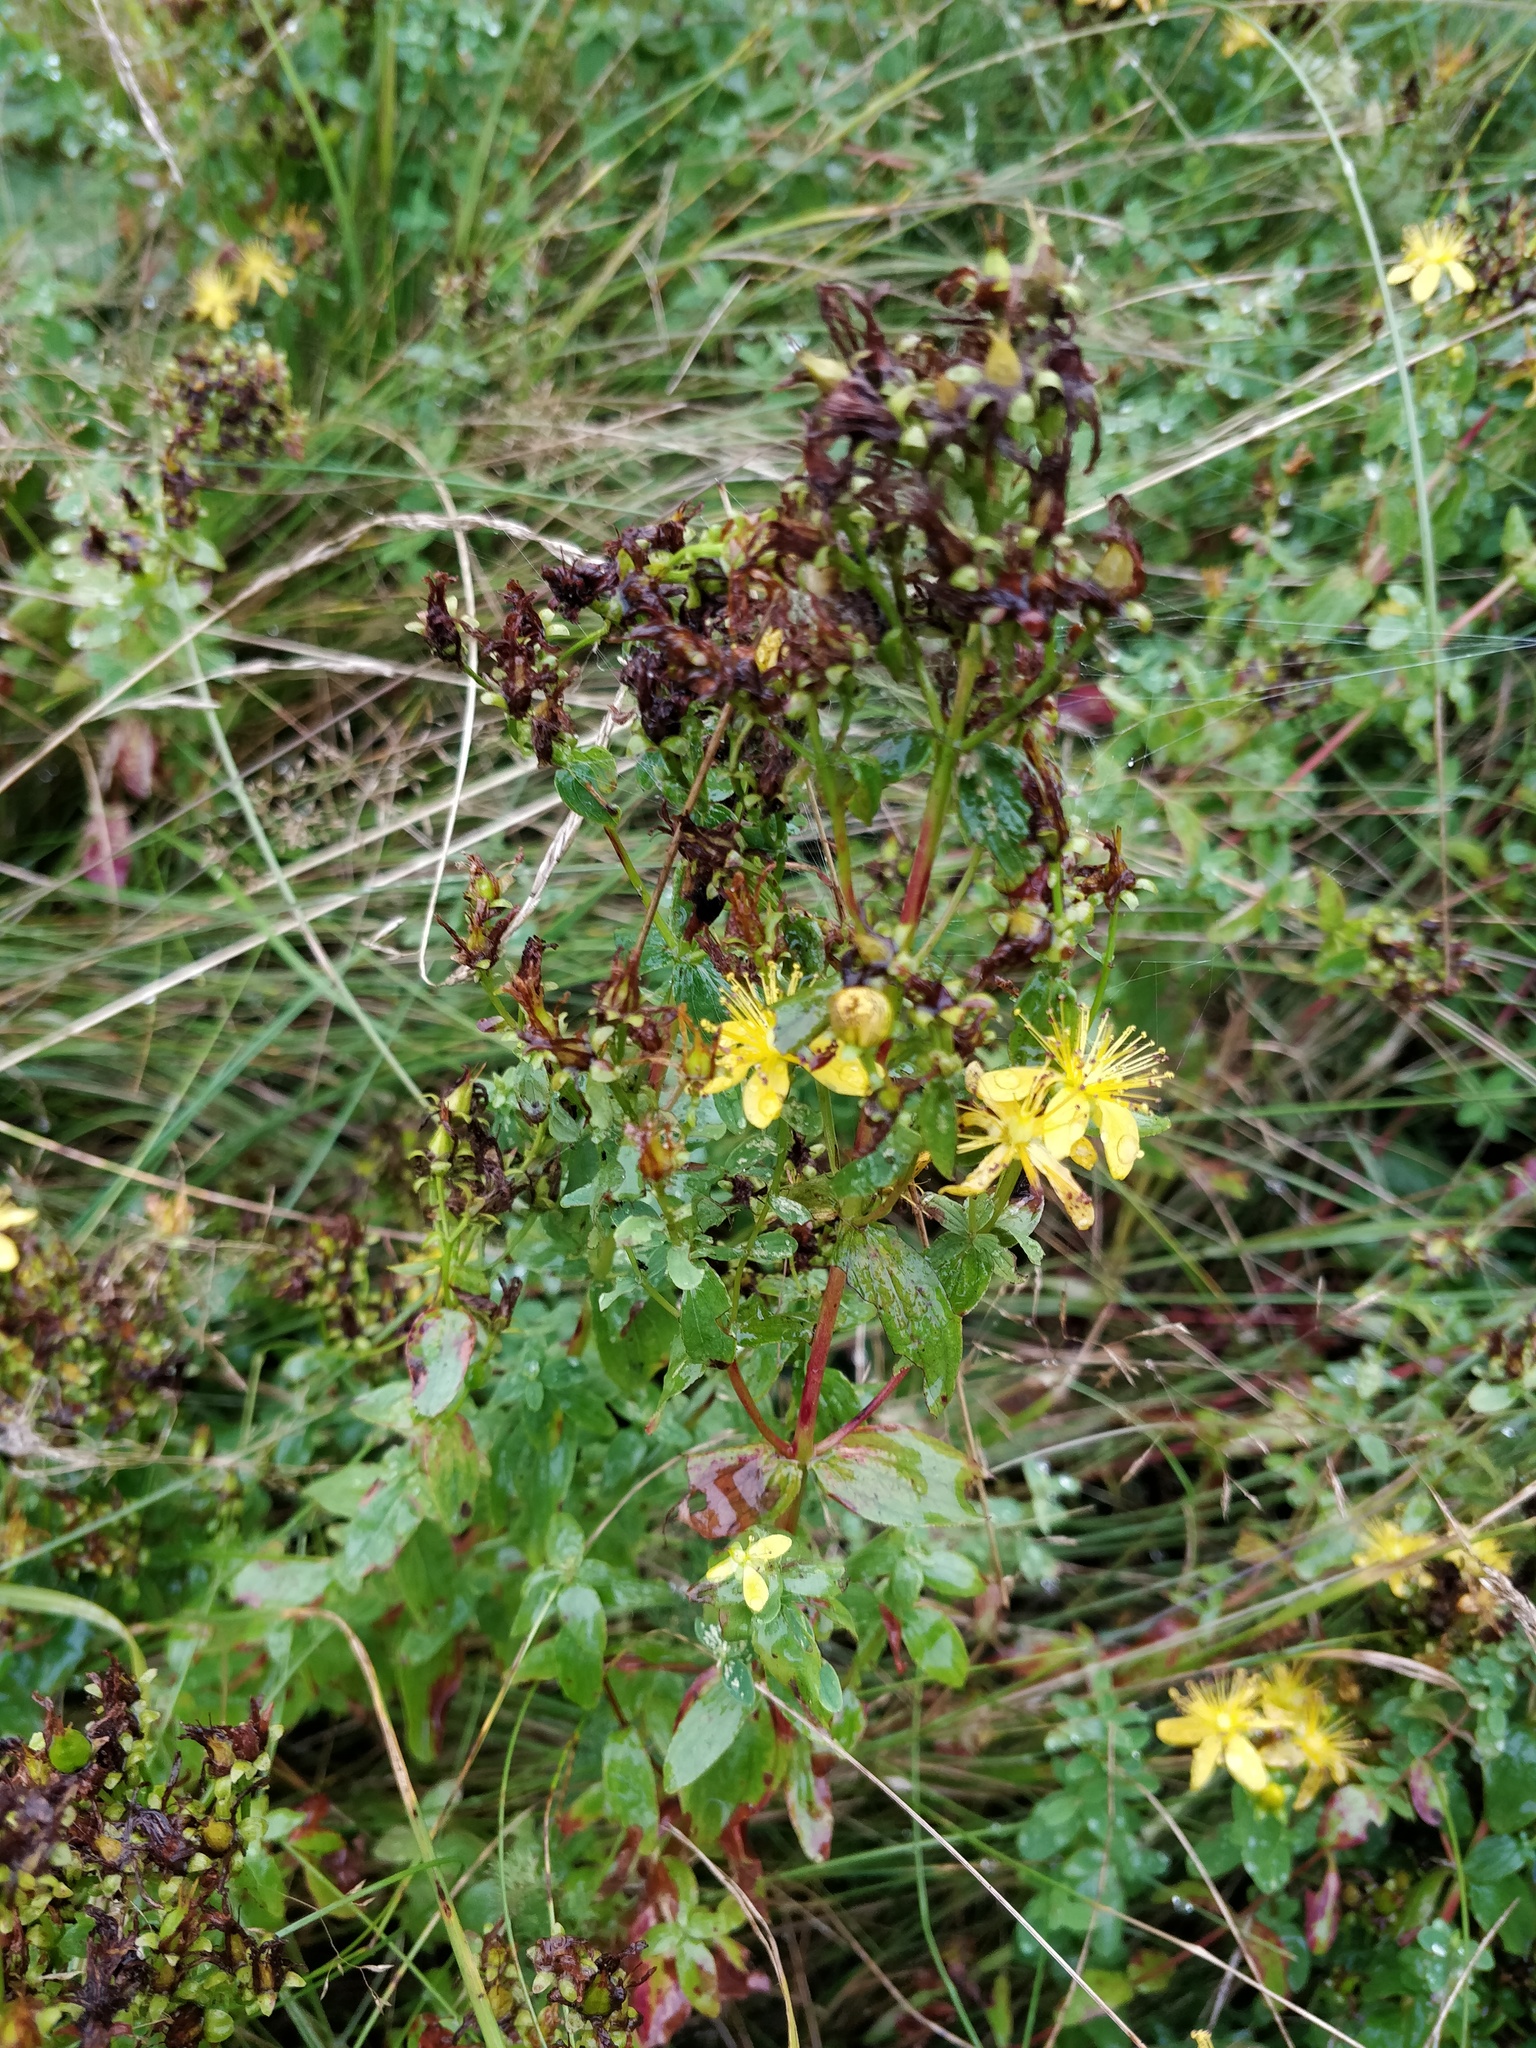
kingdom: Plantae
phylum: Tracheophyta
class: Magnoliopsida
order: Malpighiales
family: Hypericaceae
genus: Hypericum
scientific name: Hypericum maculatum
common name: Imperforate st. john's-wort
